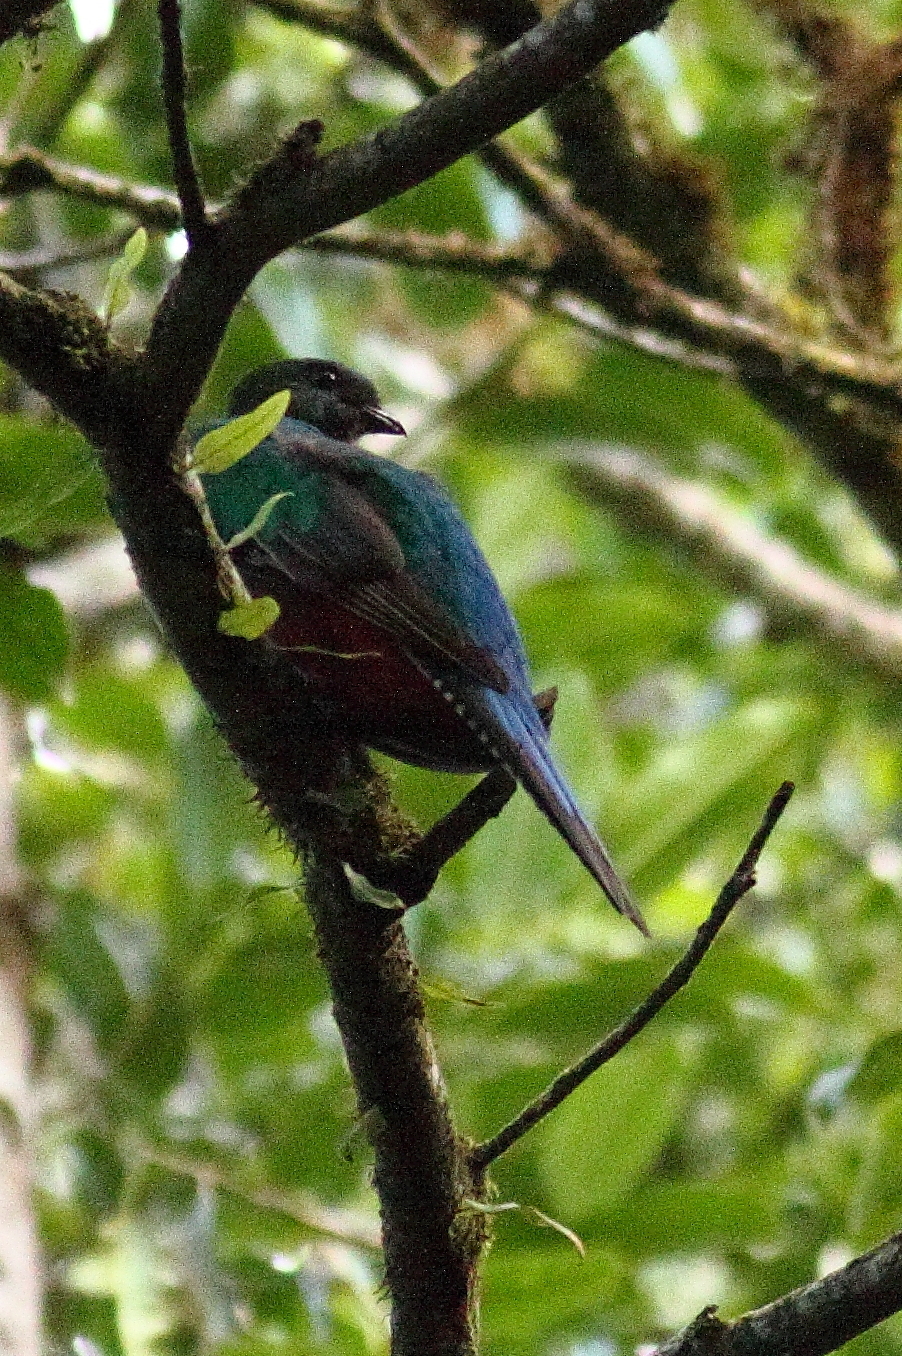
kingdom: Animalia
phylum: Chordata
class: Aves
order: Trogoniformes
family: Trogonidae
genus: Pharomachrus
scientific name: Pharomachrus mocinno
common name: Resplendent quetzal
